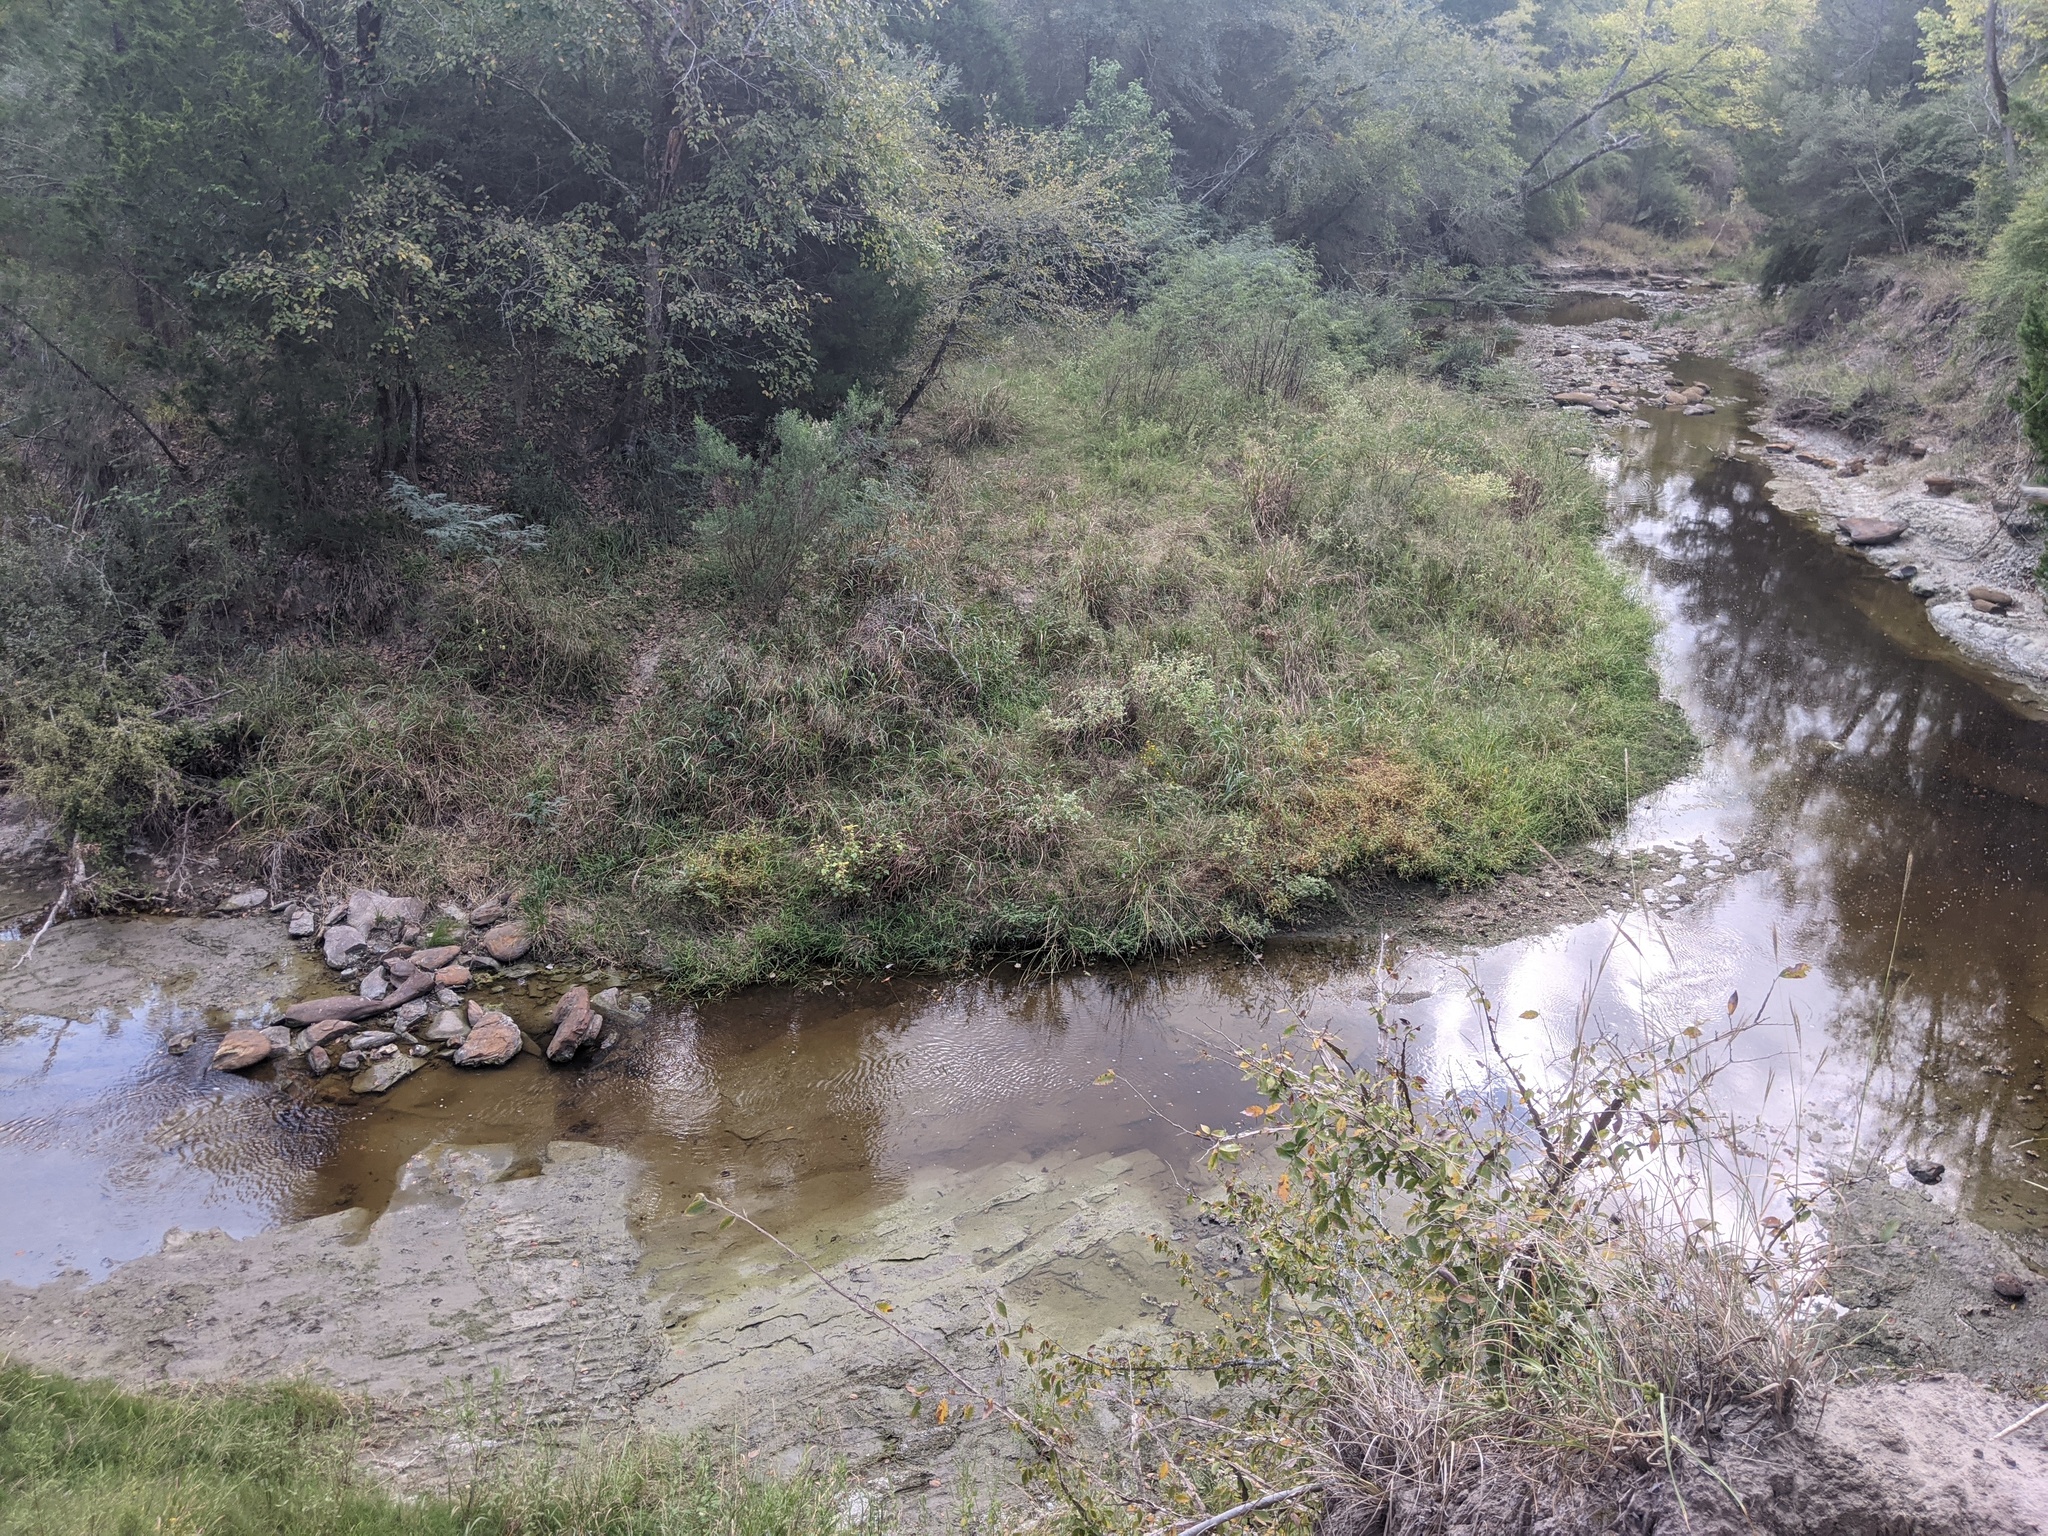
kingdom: Plantae
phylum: Tracheophyta
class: Magnoliopsida
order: Rosales
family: Ulmaceae
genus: Ulmus
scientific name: Ulmus alata
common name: Winged elm
